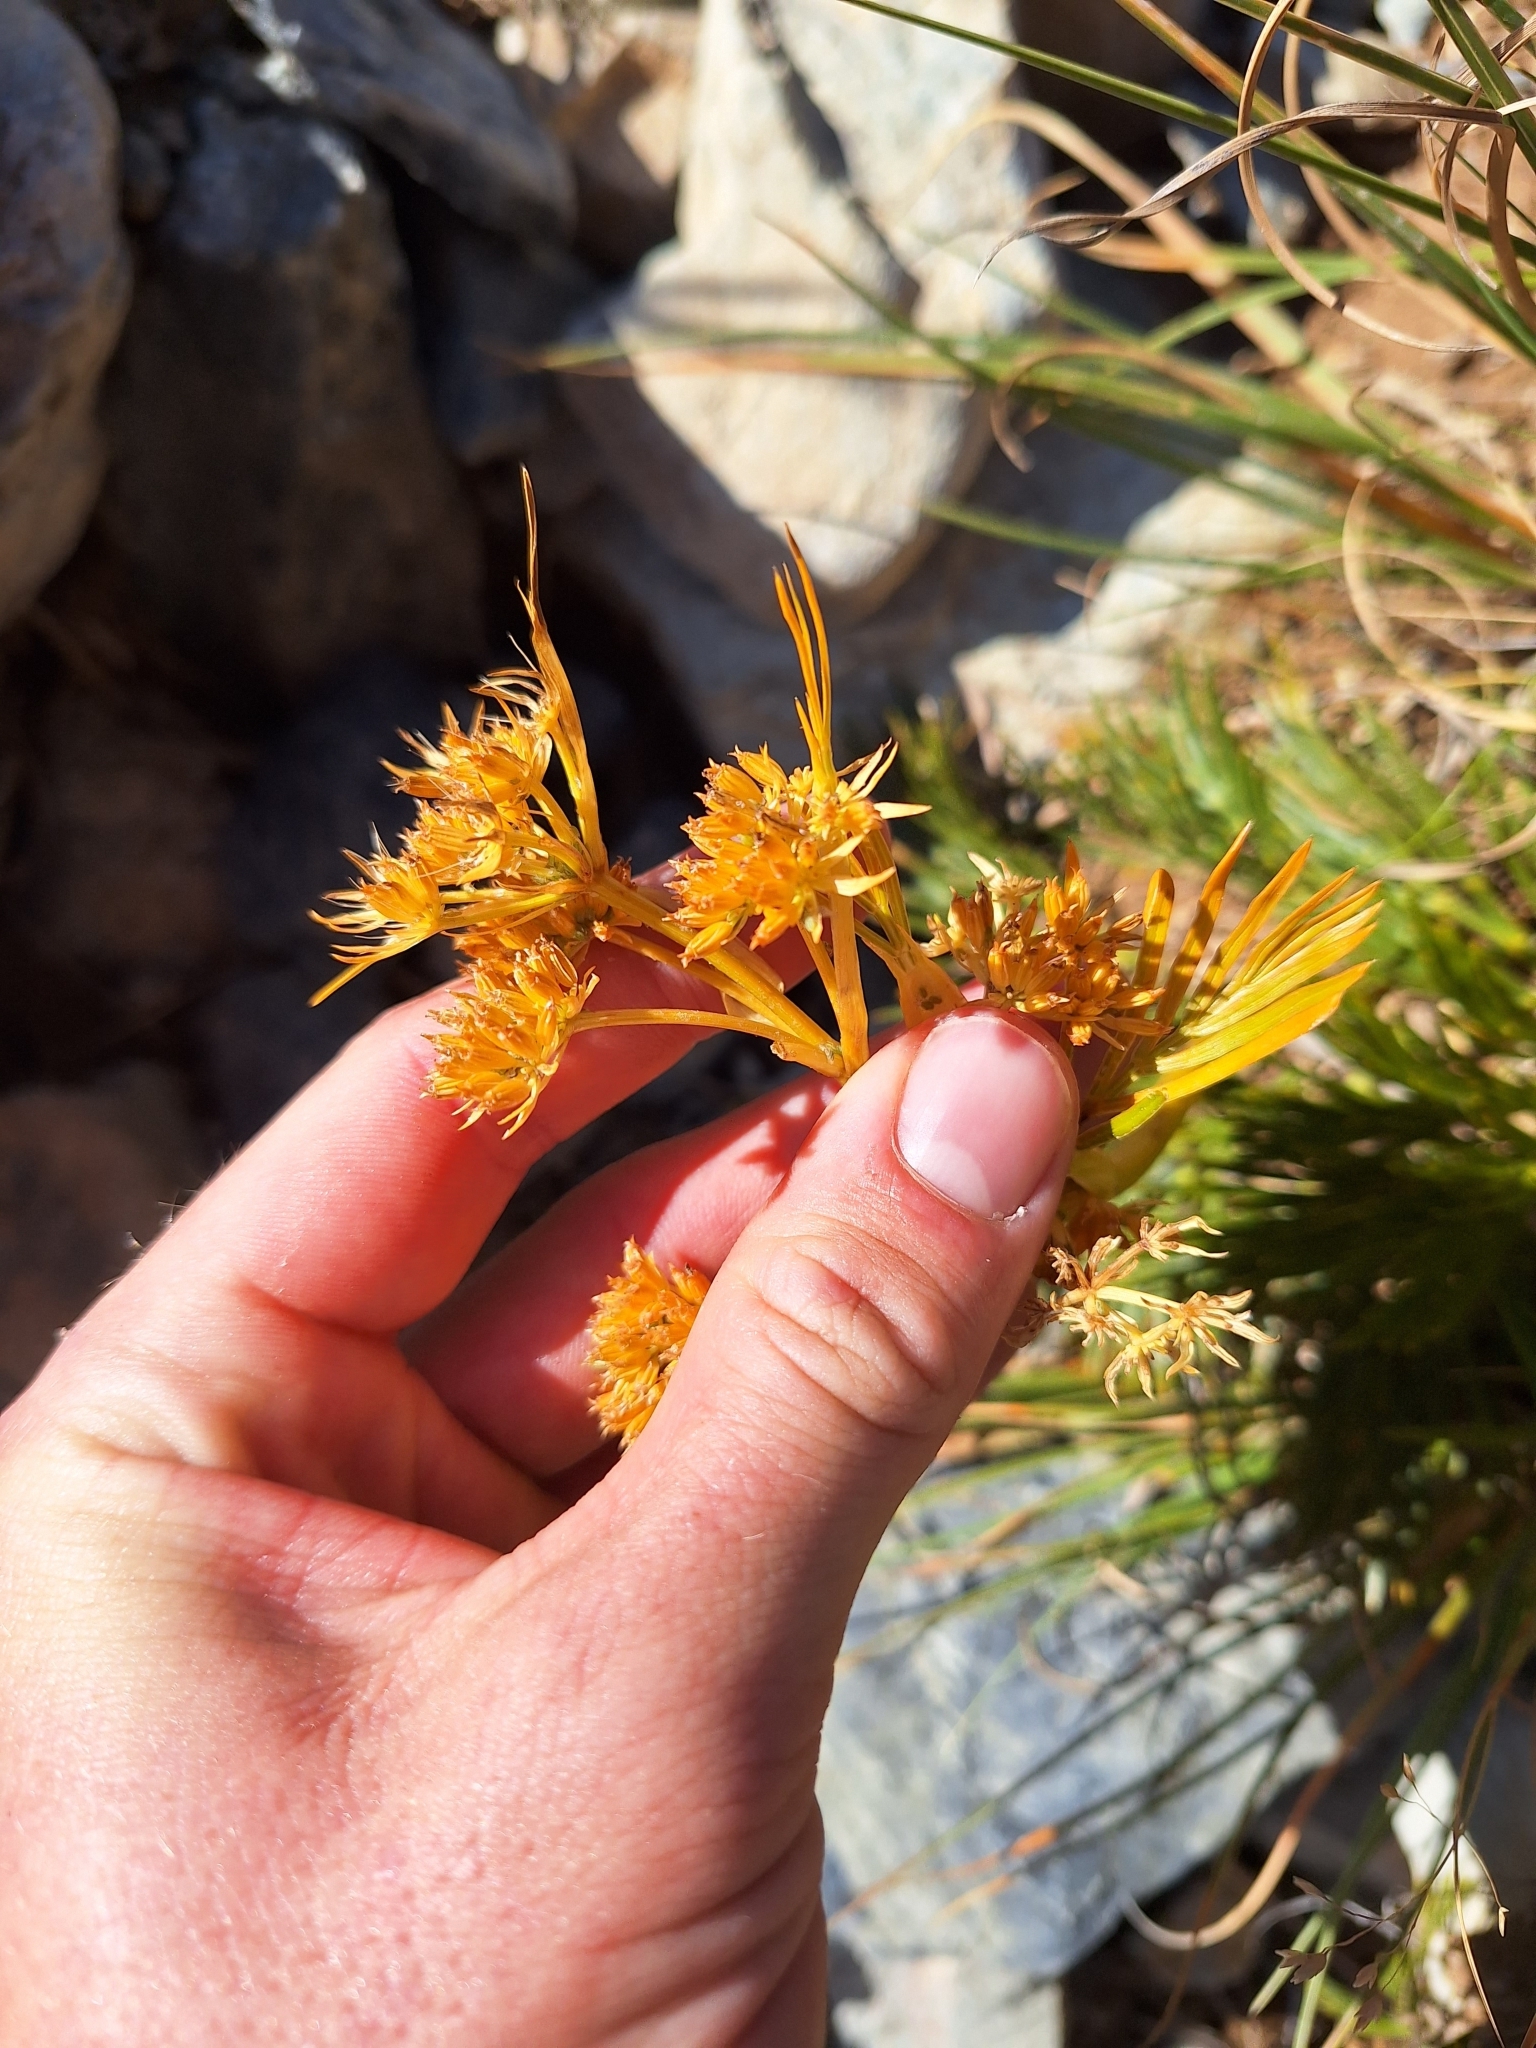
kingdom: Plantae
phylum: Tracheophyta
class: Magnoliopsida
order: Apiales
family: Apiaceae
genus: Aciphylla
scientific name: Aciphylla divisa
